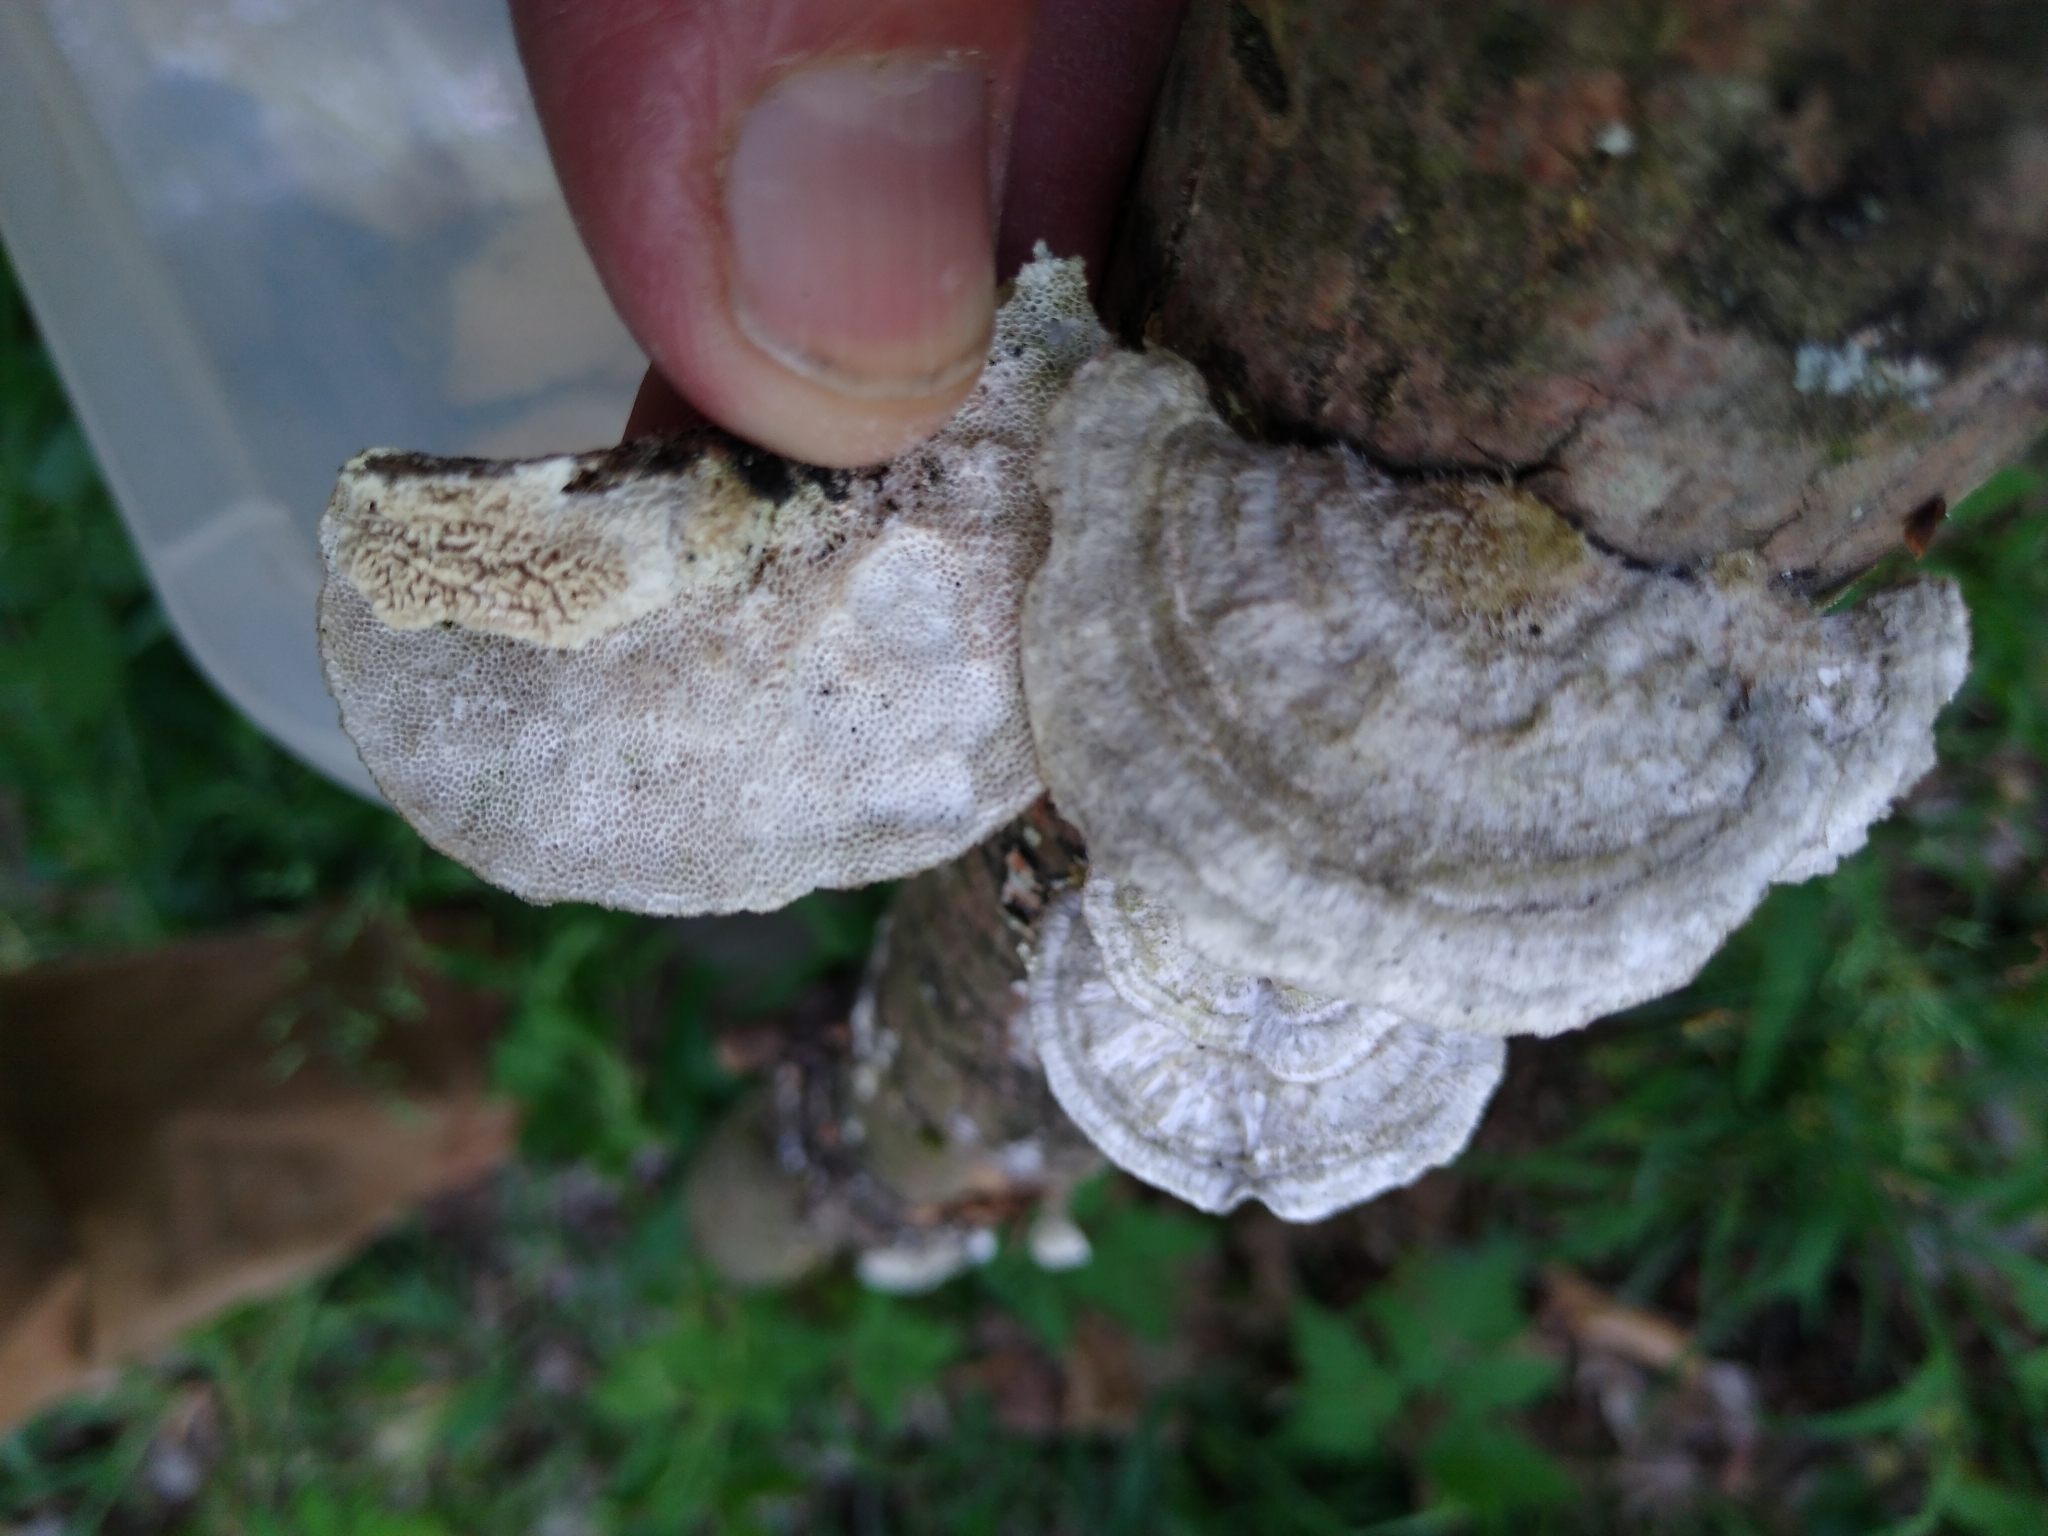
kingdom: Fungi
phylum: Basidiomycota
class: Agaricomycetes
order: Polyporales
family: Polyporaceae
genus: Trametes
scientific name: Trametes hirsuta
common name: Hairy bracket
